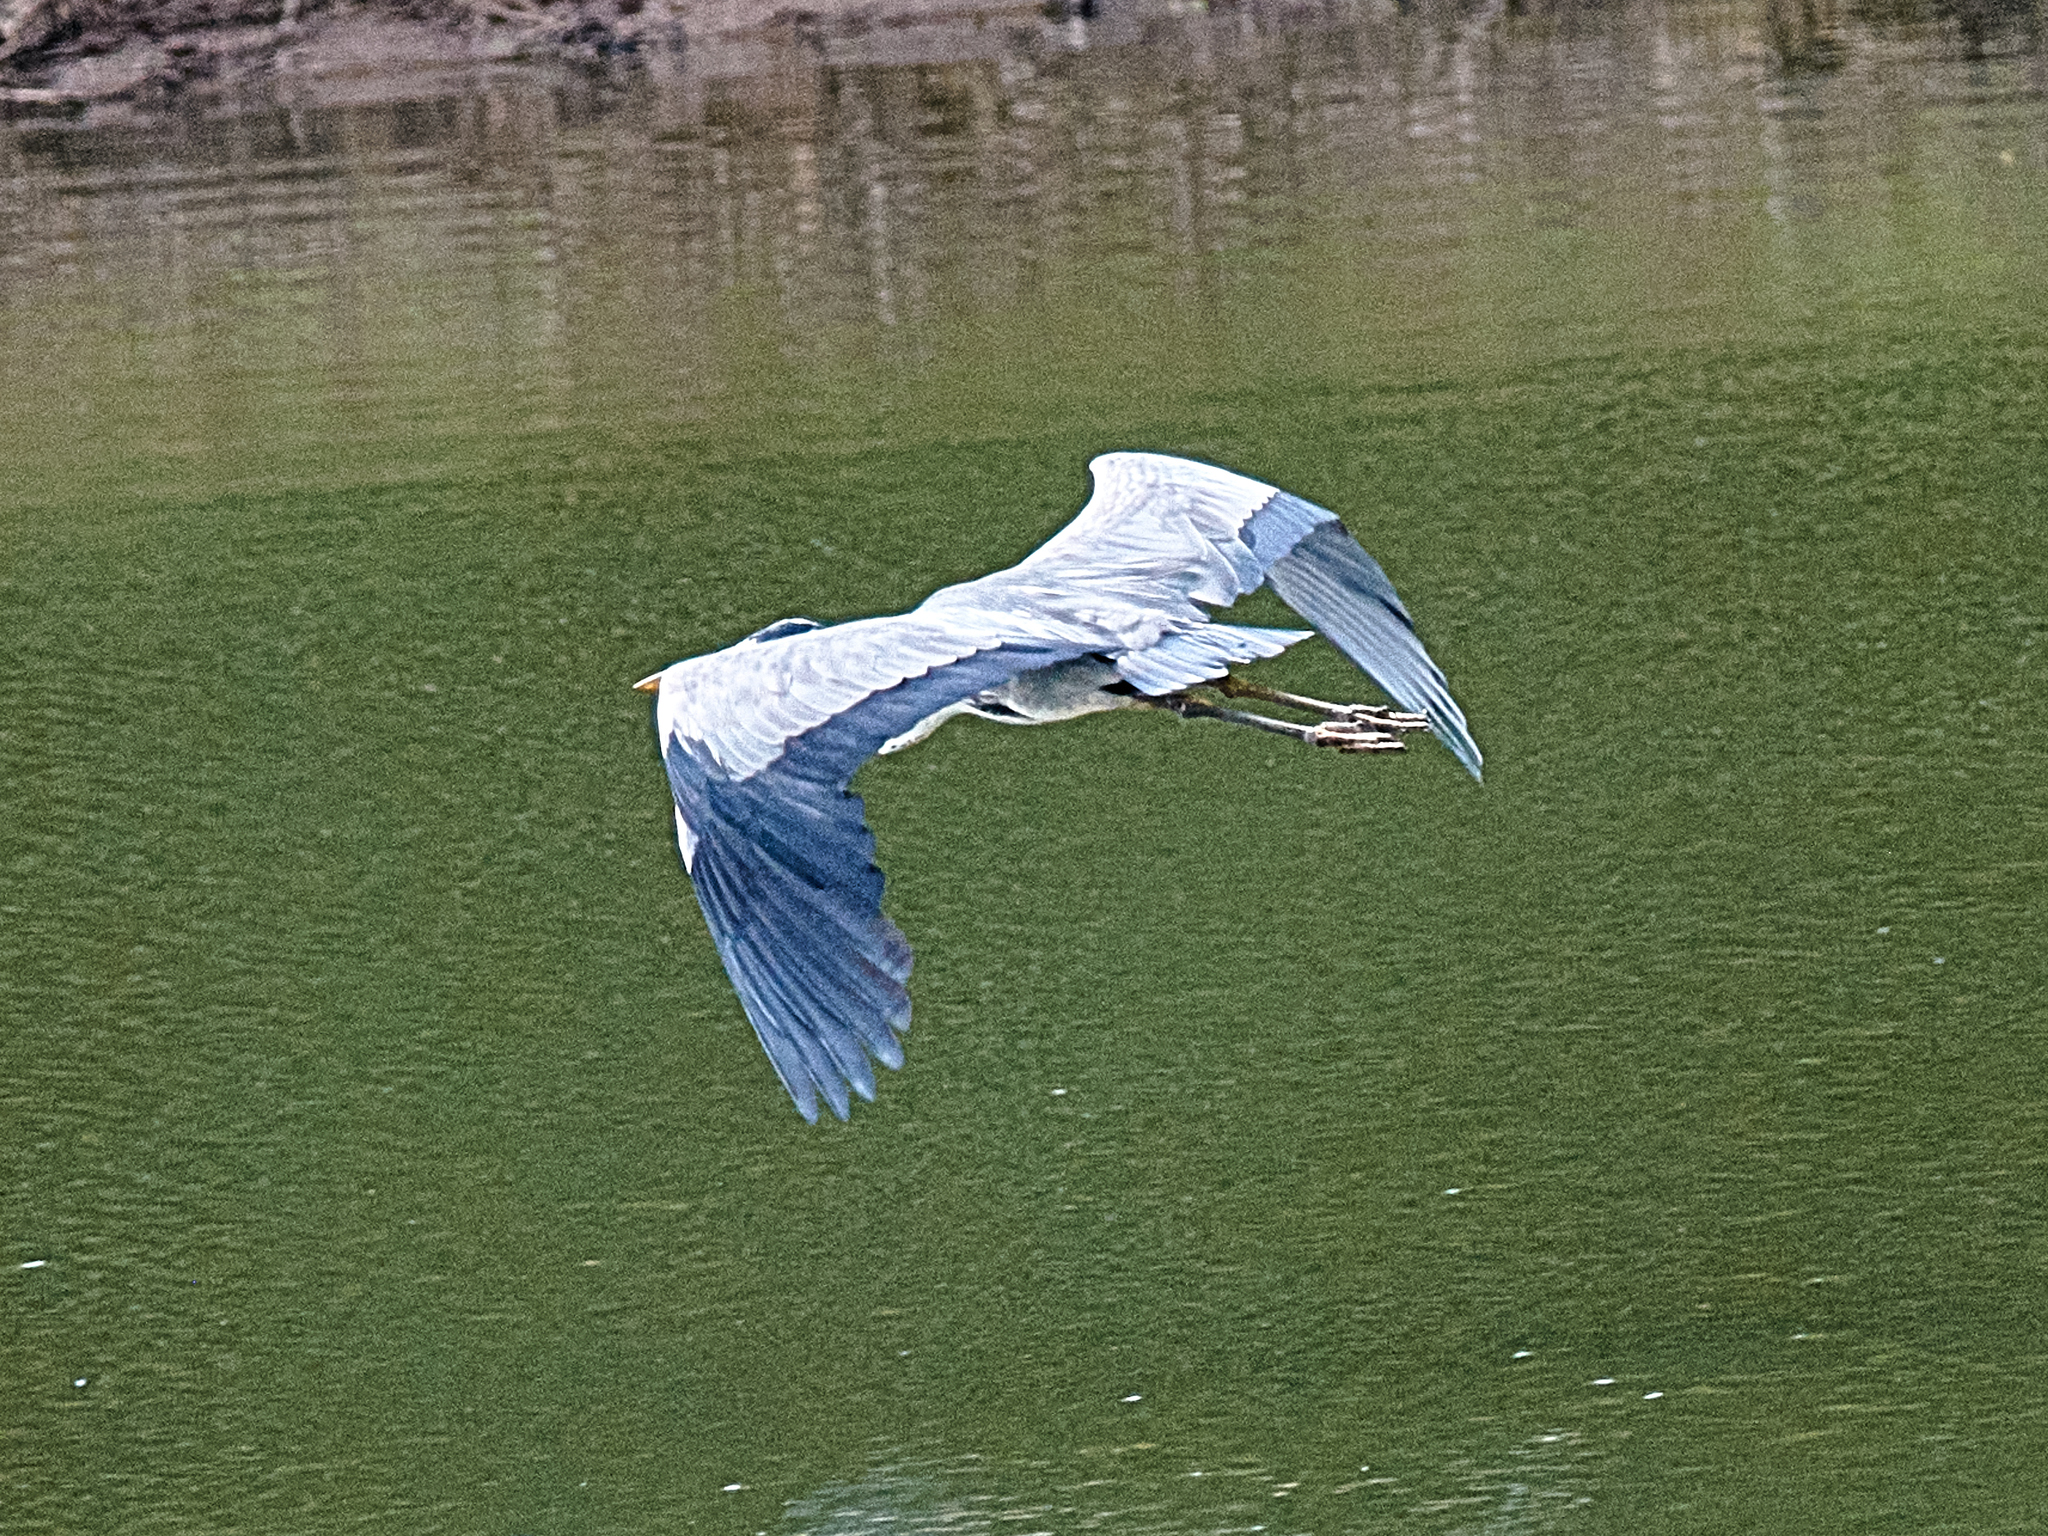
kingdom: Animalia
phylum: Chordata
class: Aves
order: Pelecaniformes
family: Ardeidae
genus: Ardea
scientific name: Ardea cinerea
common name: Grey heron
